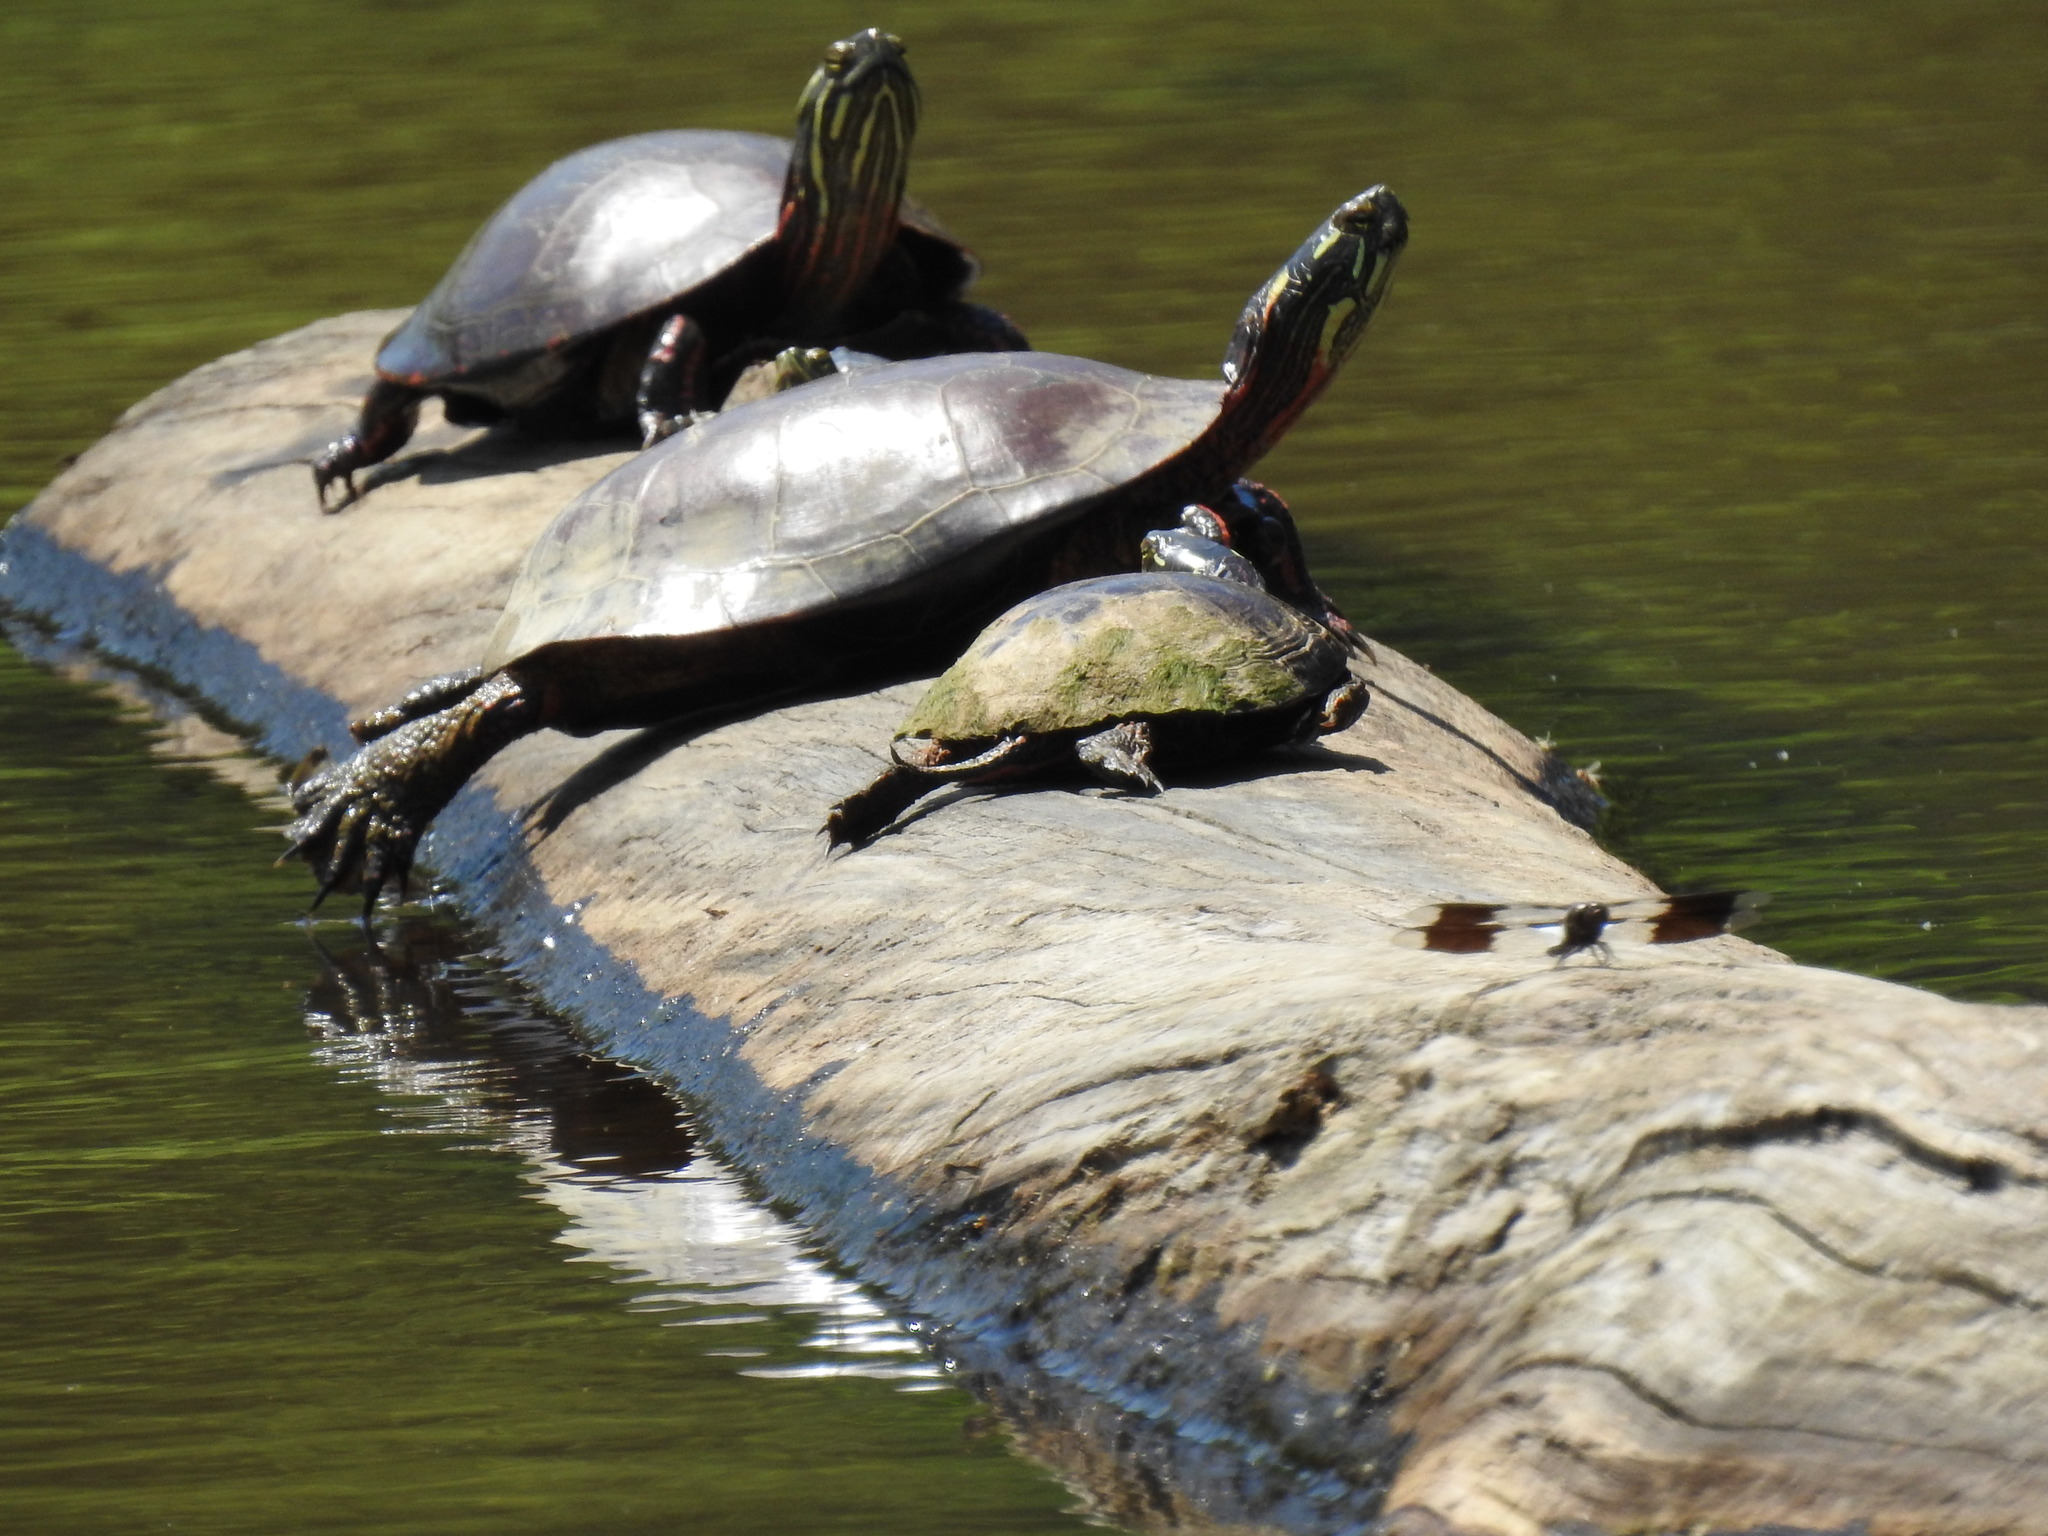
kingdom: Animalia
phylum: Chordata
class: Testudines
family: Emydidae
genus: Chrysemys
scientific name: Chrysemys picta
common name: Painted turtle
